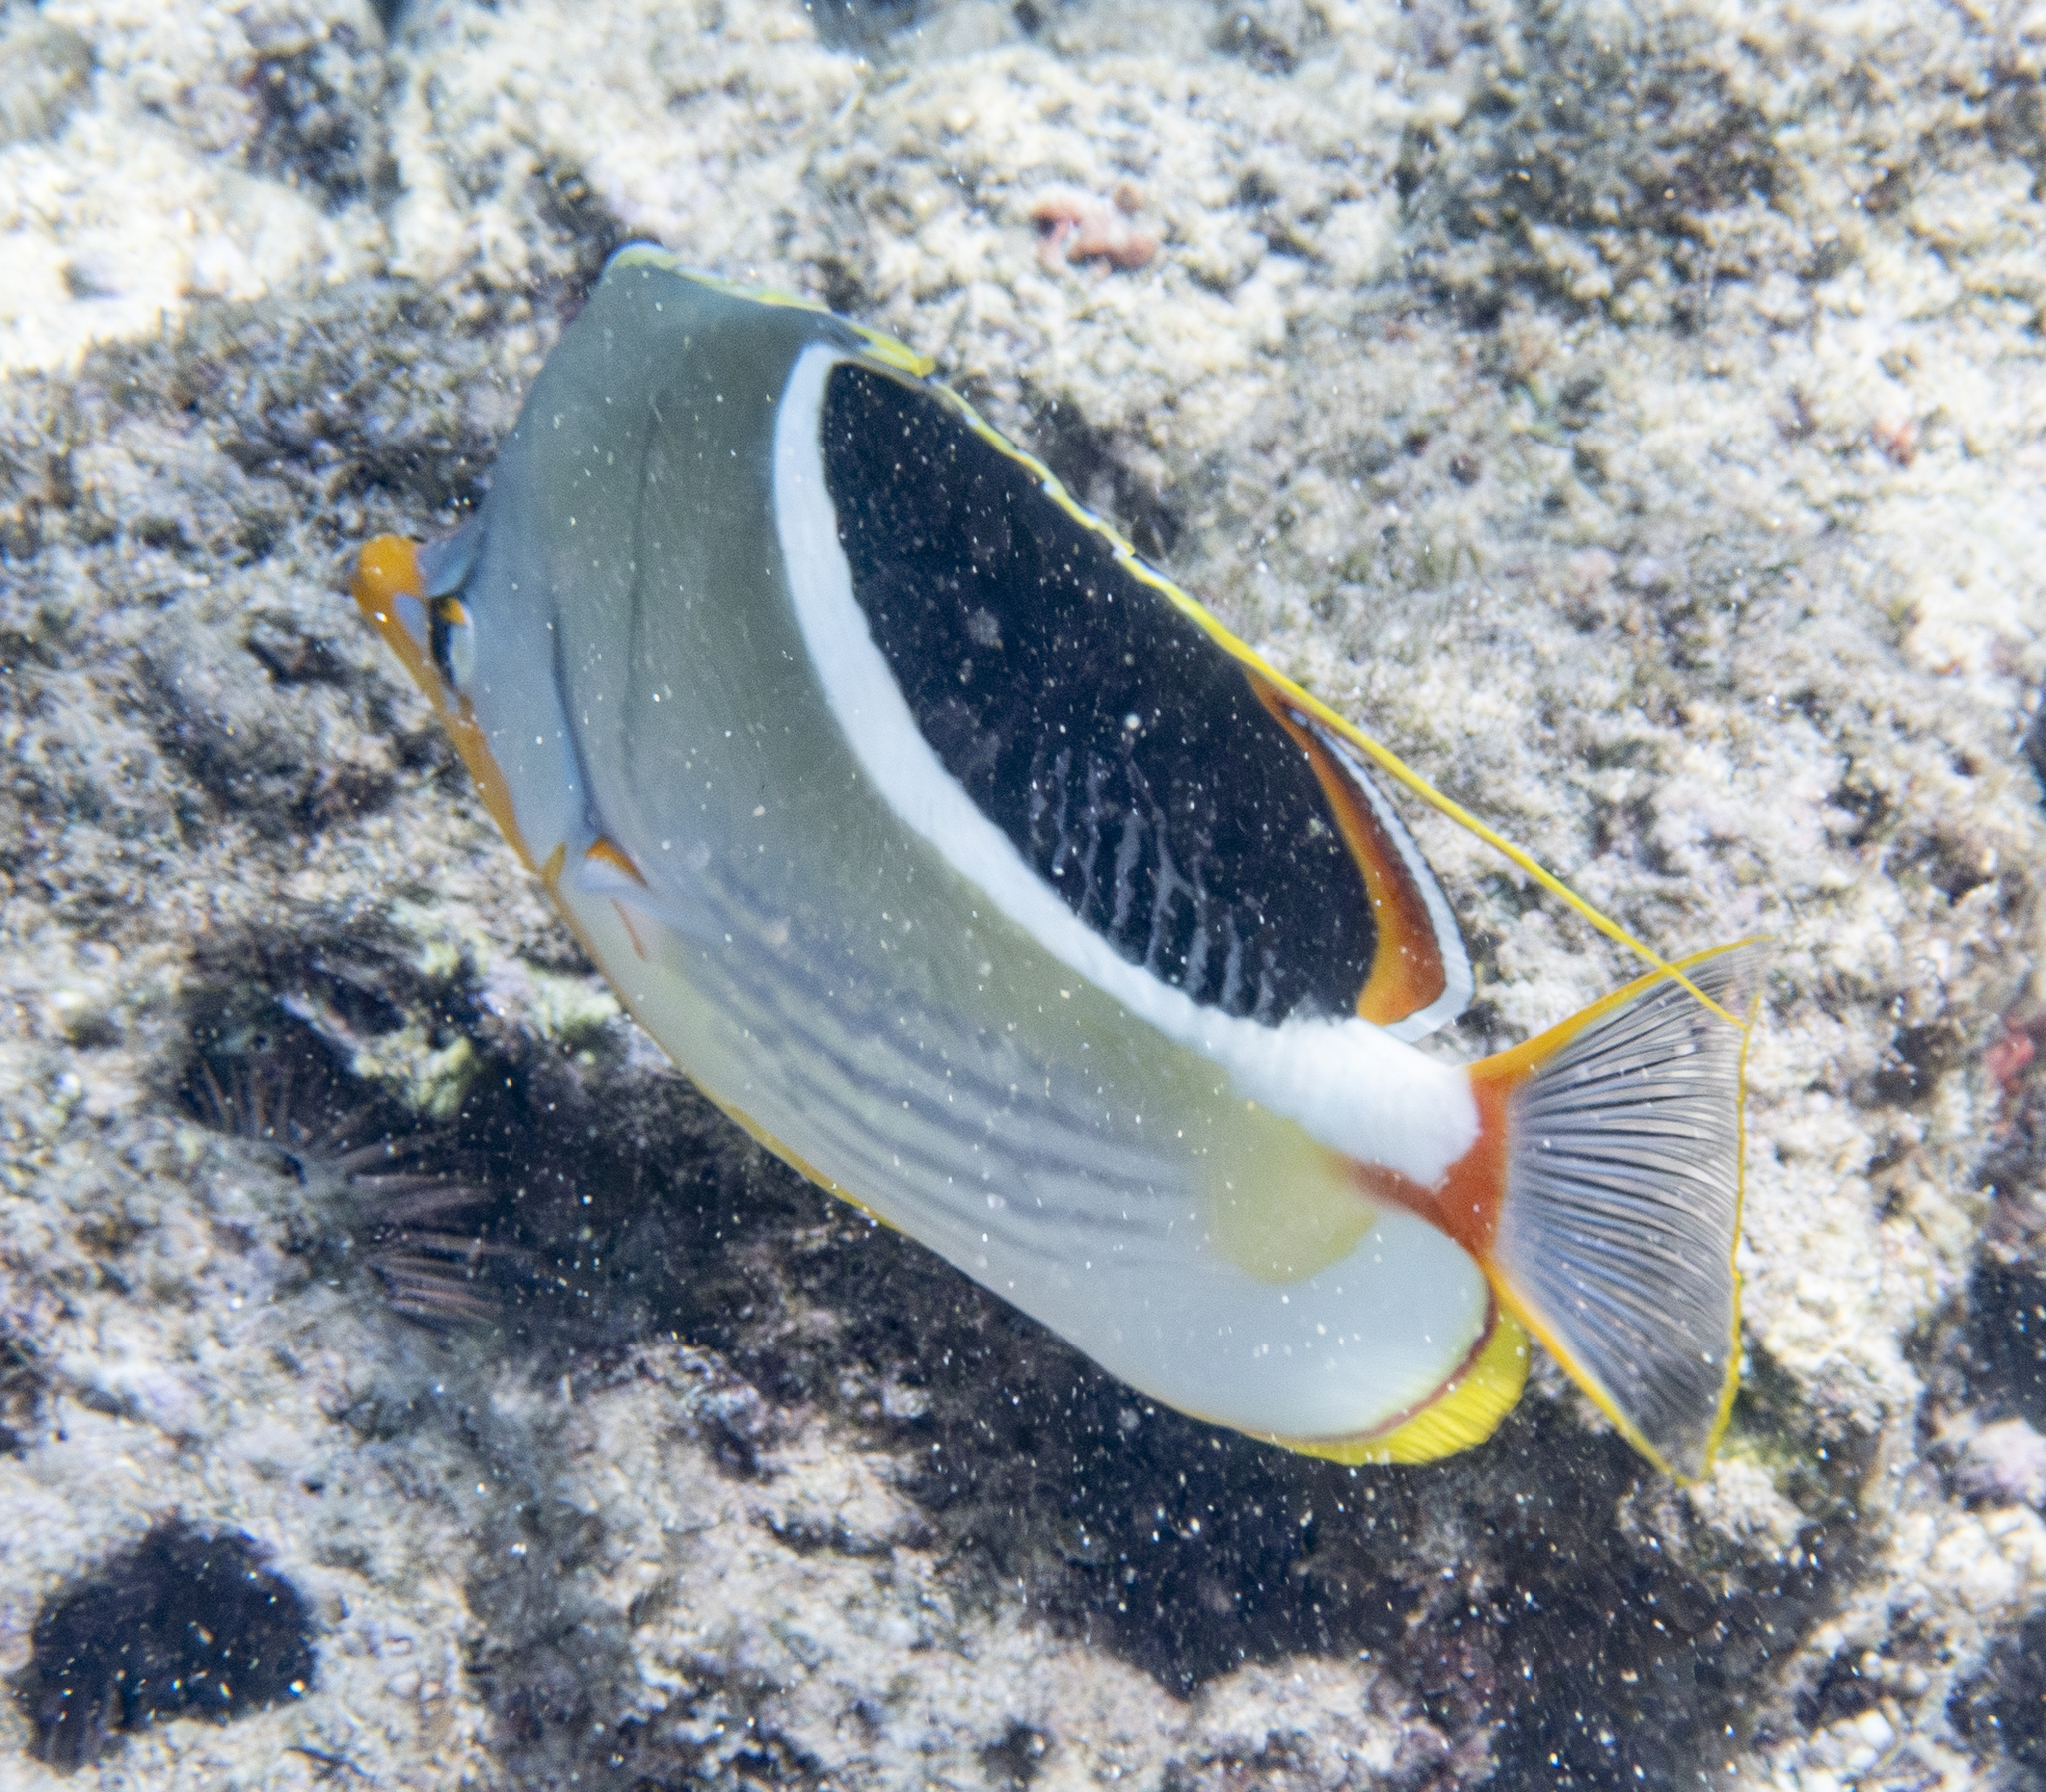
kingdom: Animalia
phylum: Chordata
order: Perciformes
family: Chaetodontidae
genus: Chaetodon
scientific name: Chaetodon ephippium
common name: Saddled butterflyfish
